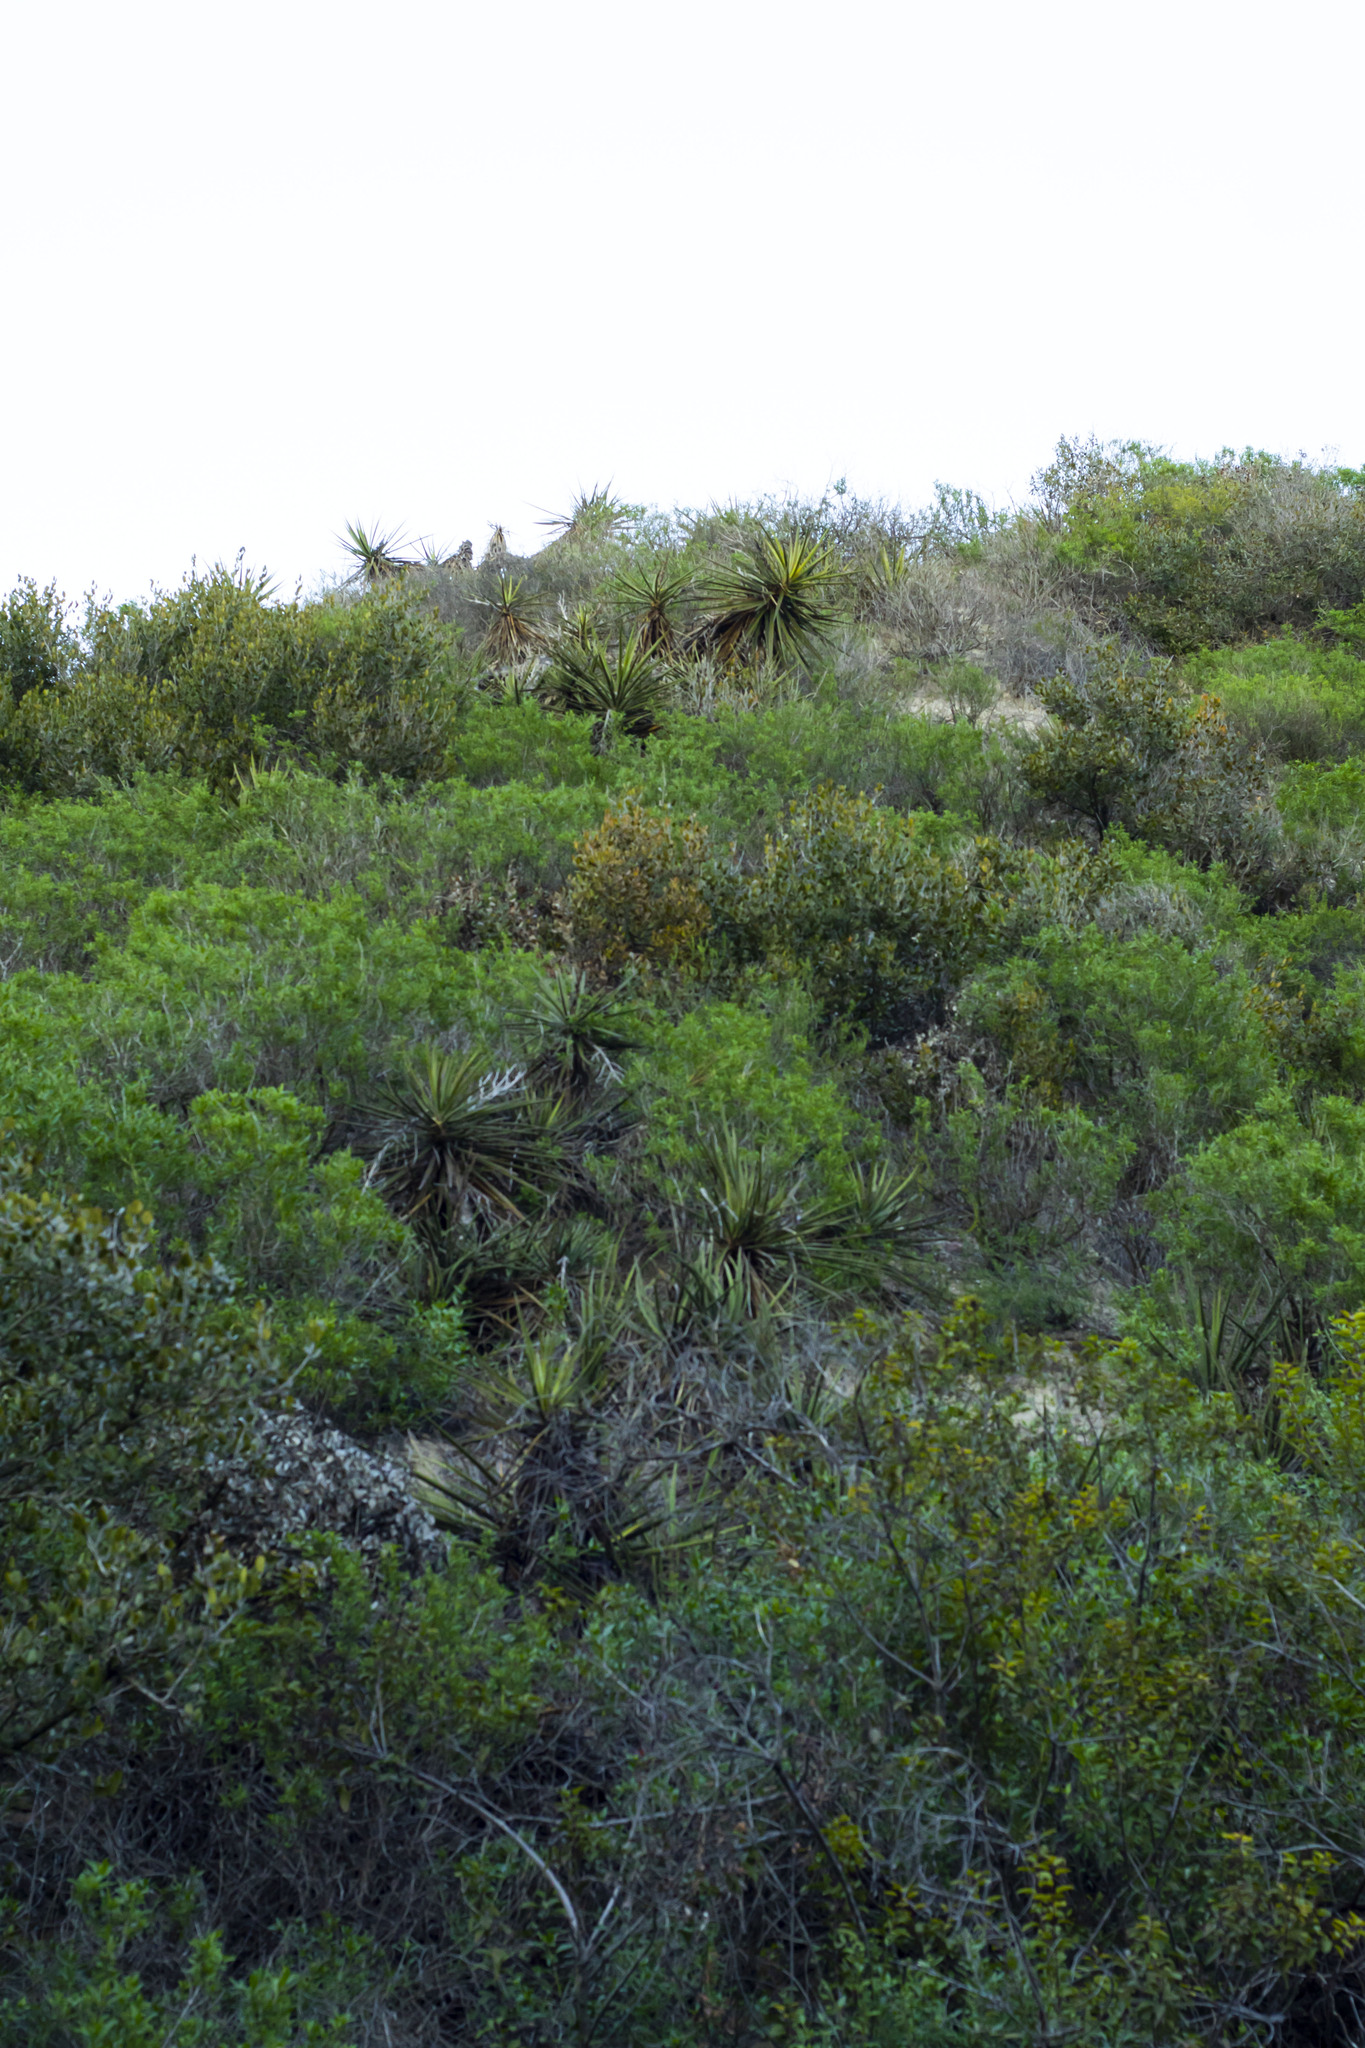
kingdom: Plantae
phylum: Tracheophyta
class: Liliopsida
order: Asparagales
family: Asparagaceae
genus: Yucca
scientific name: Yucca schidigera
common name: Mojave yucca
